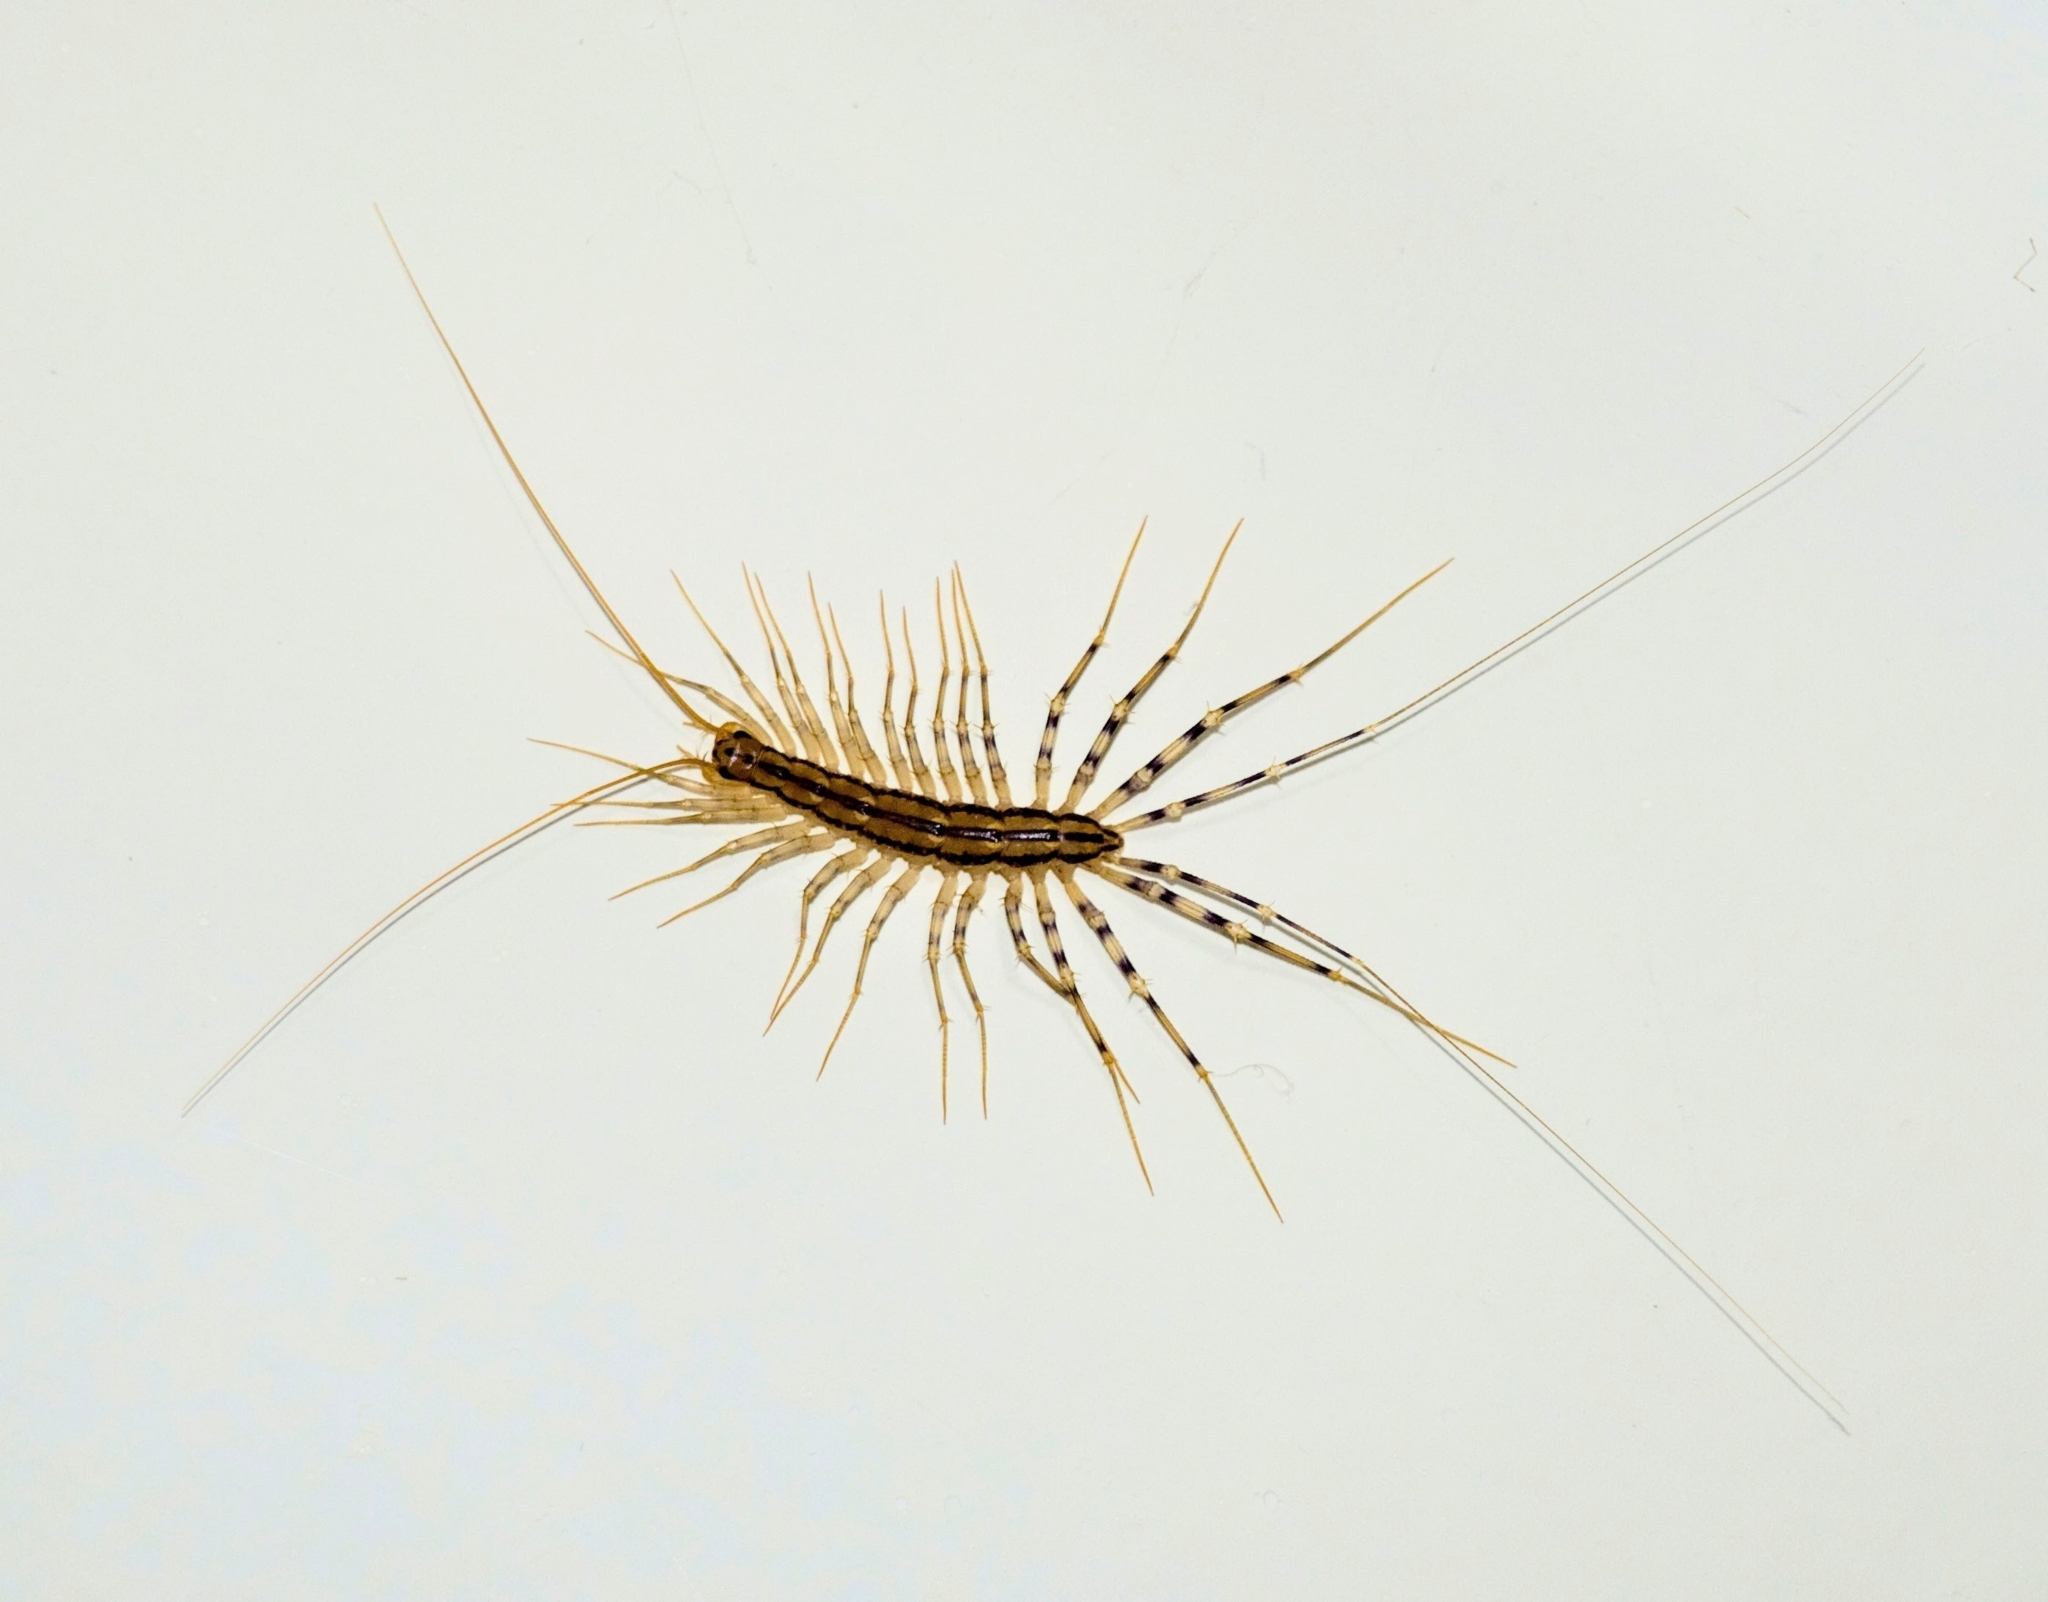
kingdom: Animalia
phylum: Arthropoda
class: Chilopoda
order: Scutigeromorpha
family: Scutigeridae
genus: Scutigera
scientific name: Scutigera coleoptrata
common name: House centipede
